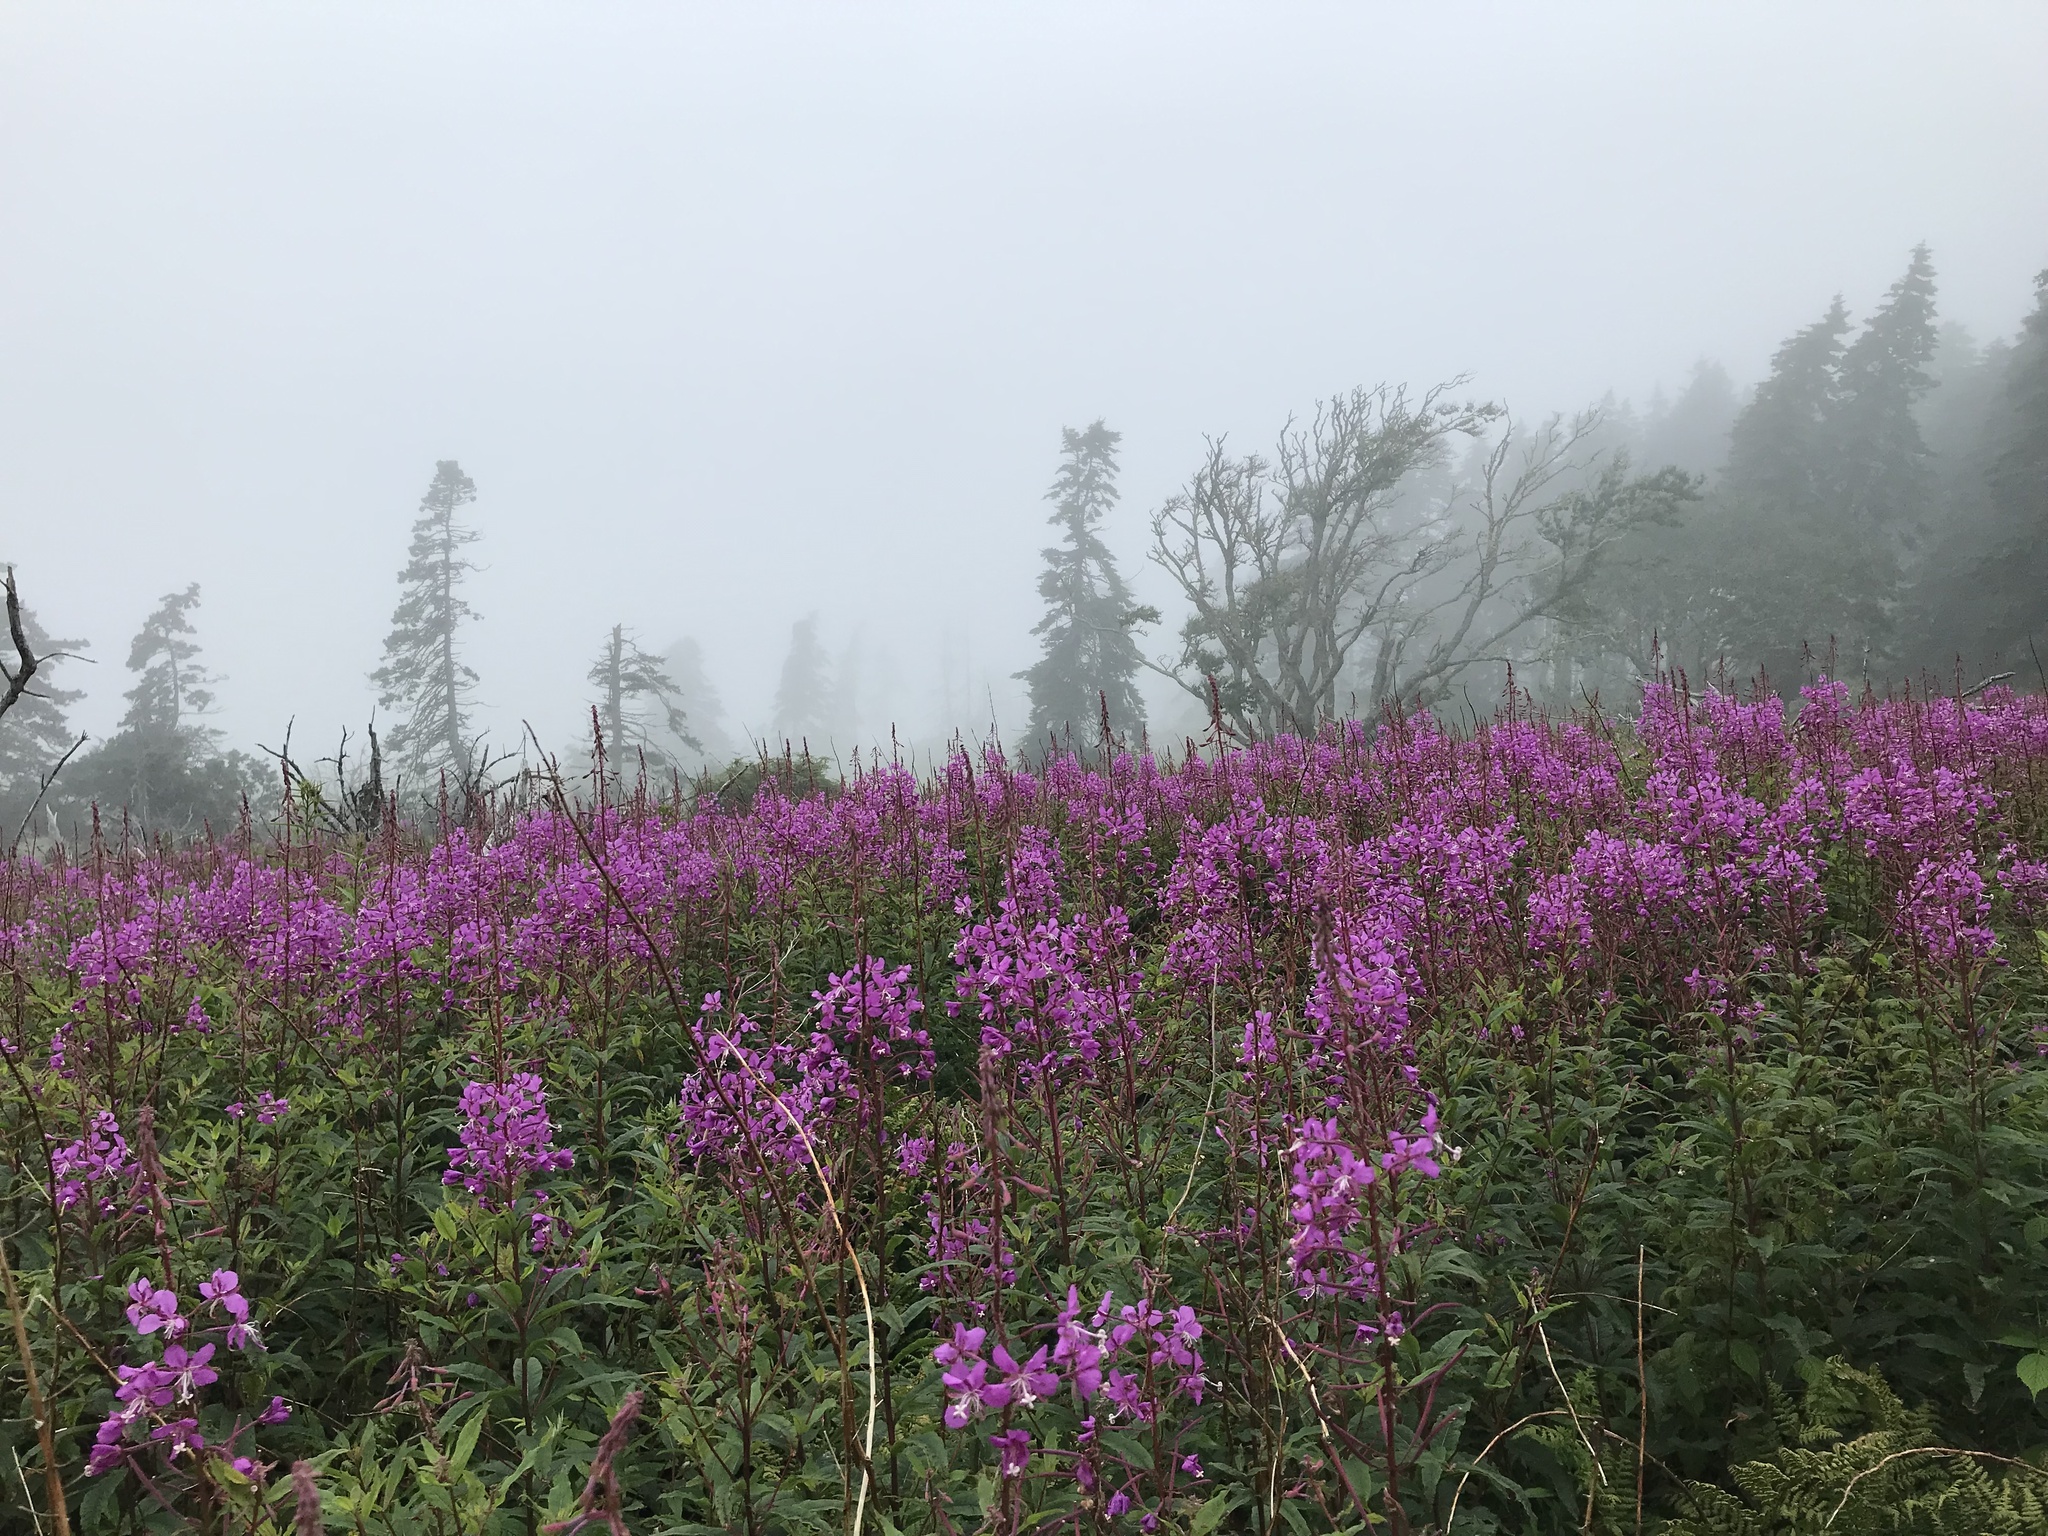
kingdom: Plantae
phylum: Tracheophyta
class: Magnoliopsida
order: Myrtales
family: Onagraceae
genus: Chamaenerion
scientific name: Chamaenerion angustifolium
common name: Fireweed
